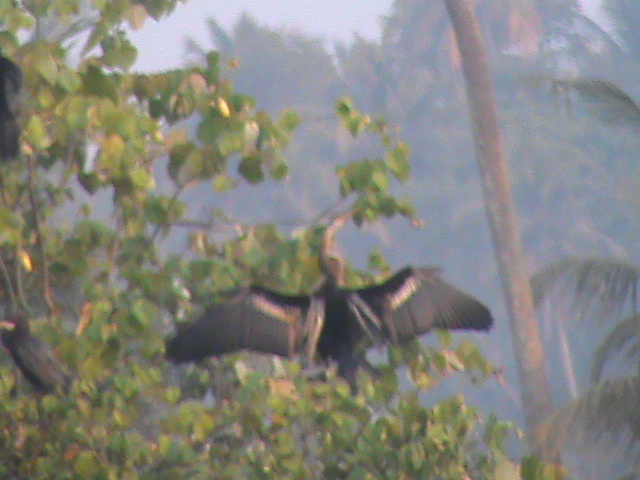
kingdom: Animalia
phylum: Chordata
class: Aves
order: Suliformes
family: Anhingidae
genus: Anhinga
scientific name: Anhinga melanogaster
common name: Oriental darter
